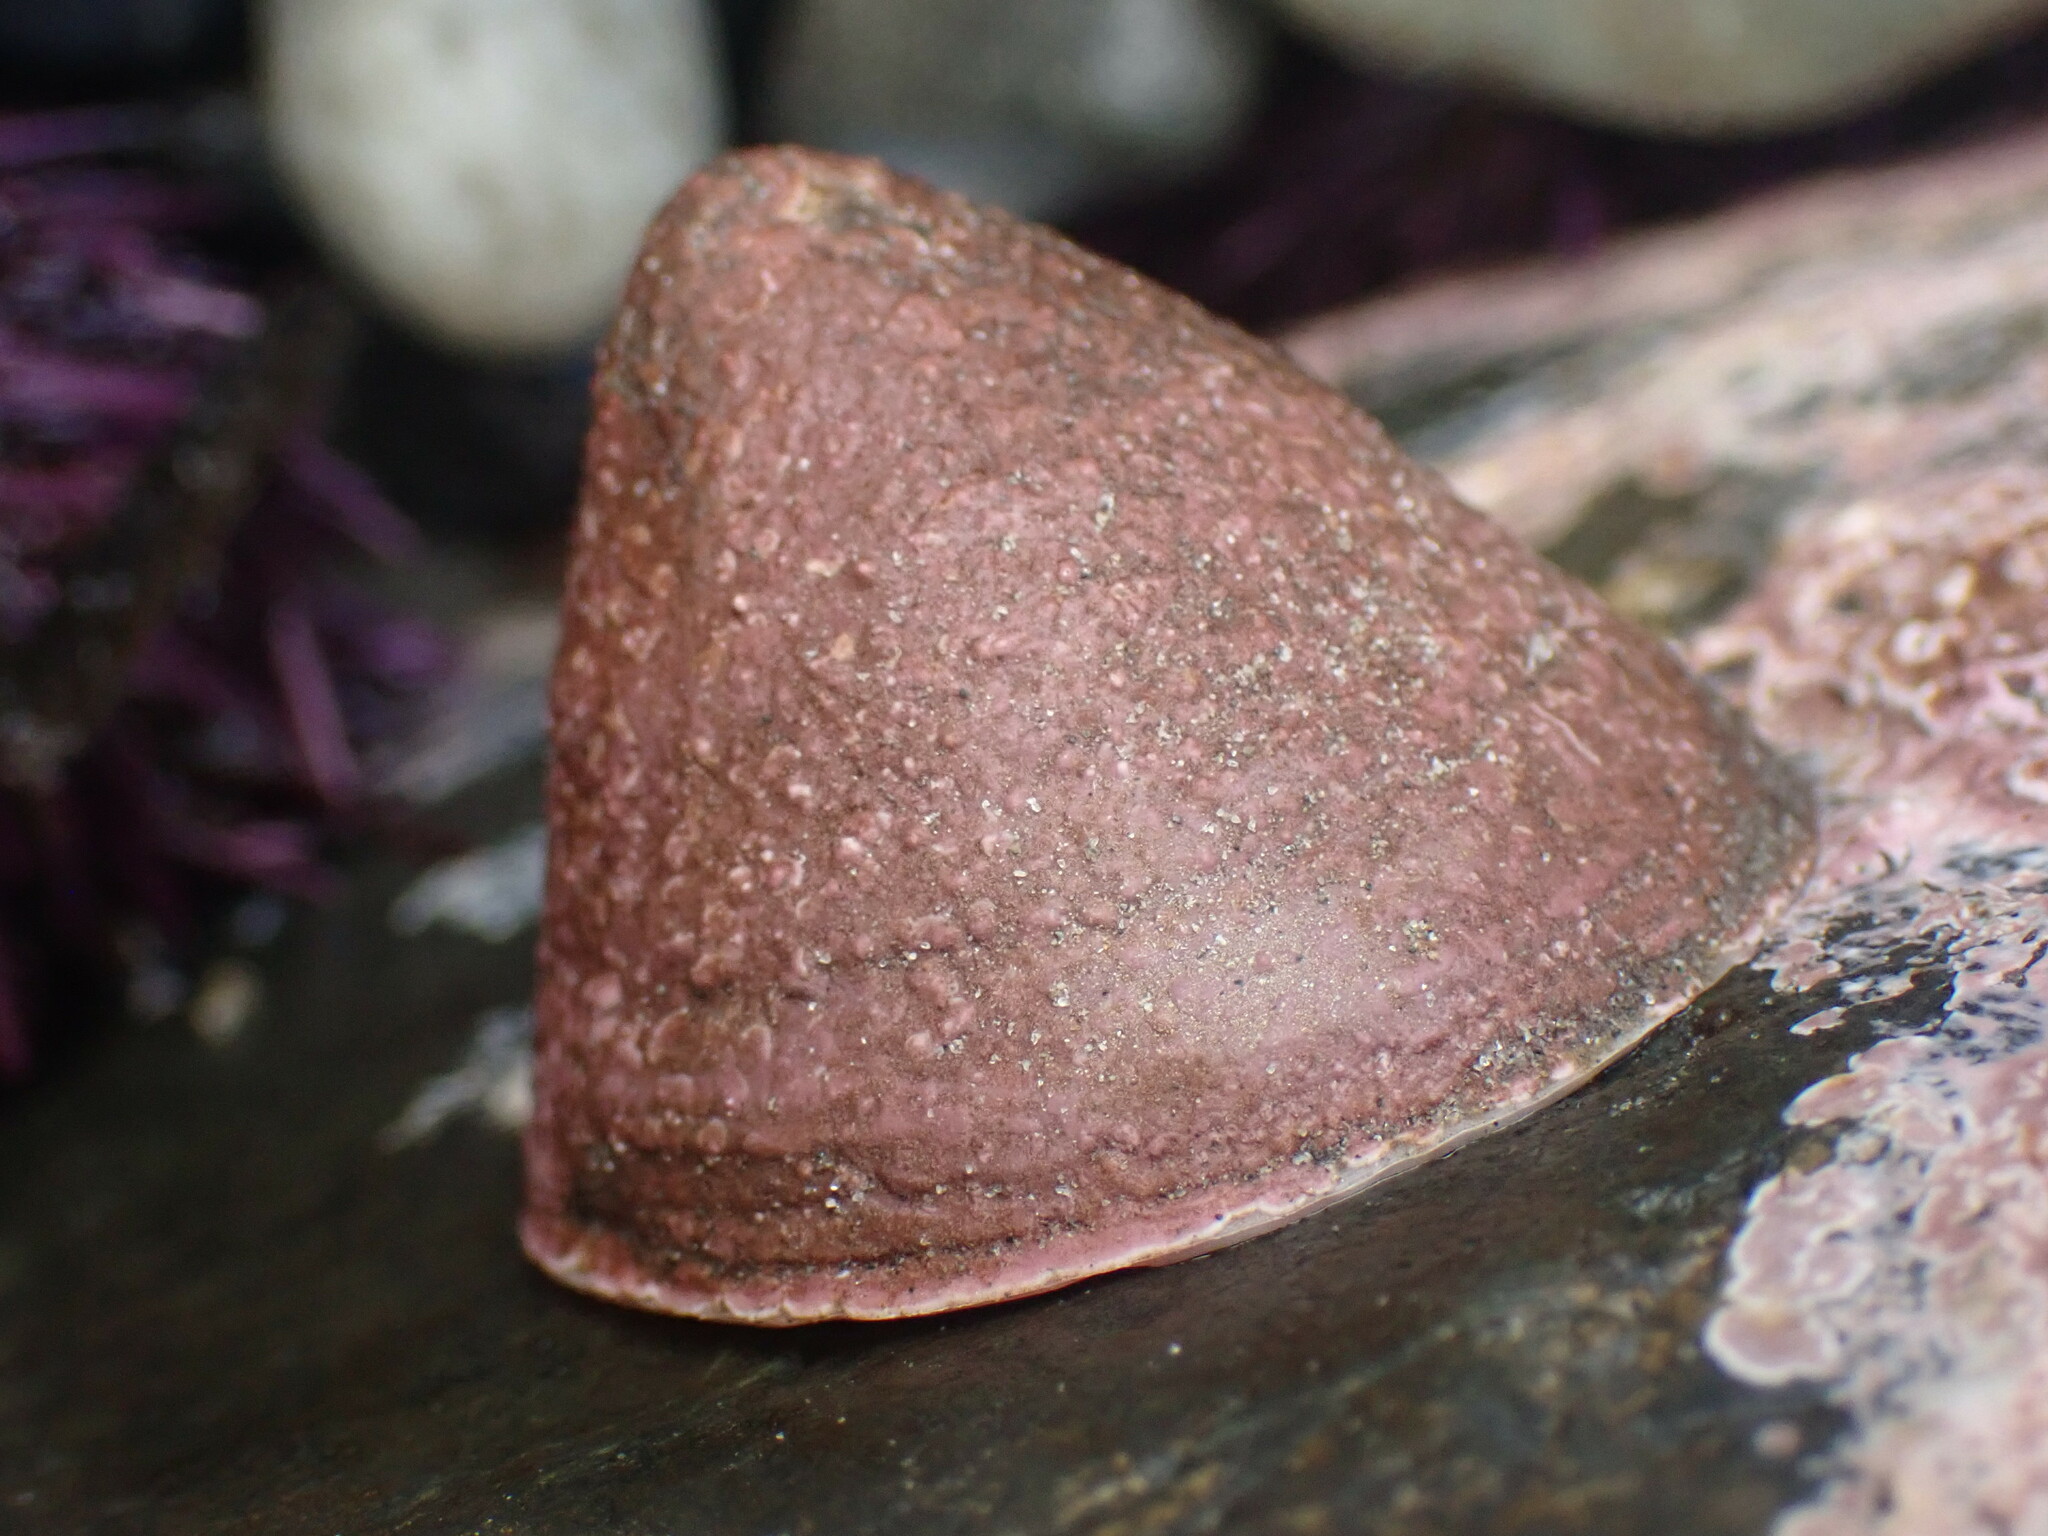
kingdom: Animalia
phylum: Mollusca
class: Gastropoda
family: Acmaeidae
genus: Acmaea
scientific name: Acmaea mitra
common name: Pacific white cap limpet
